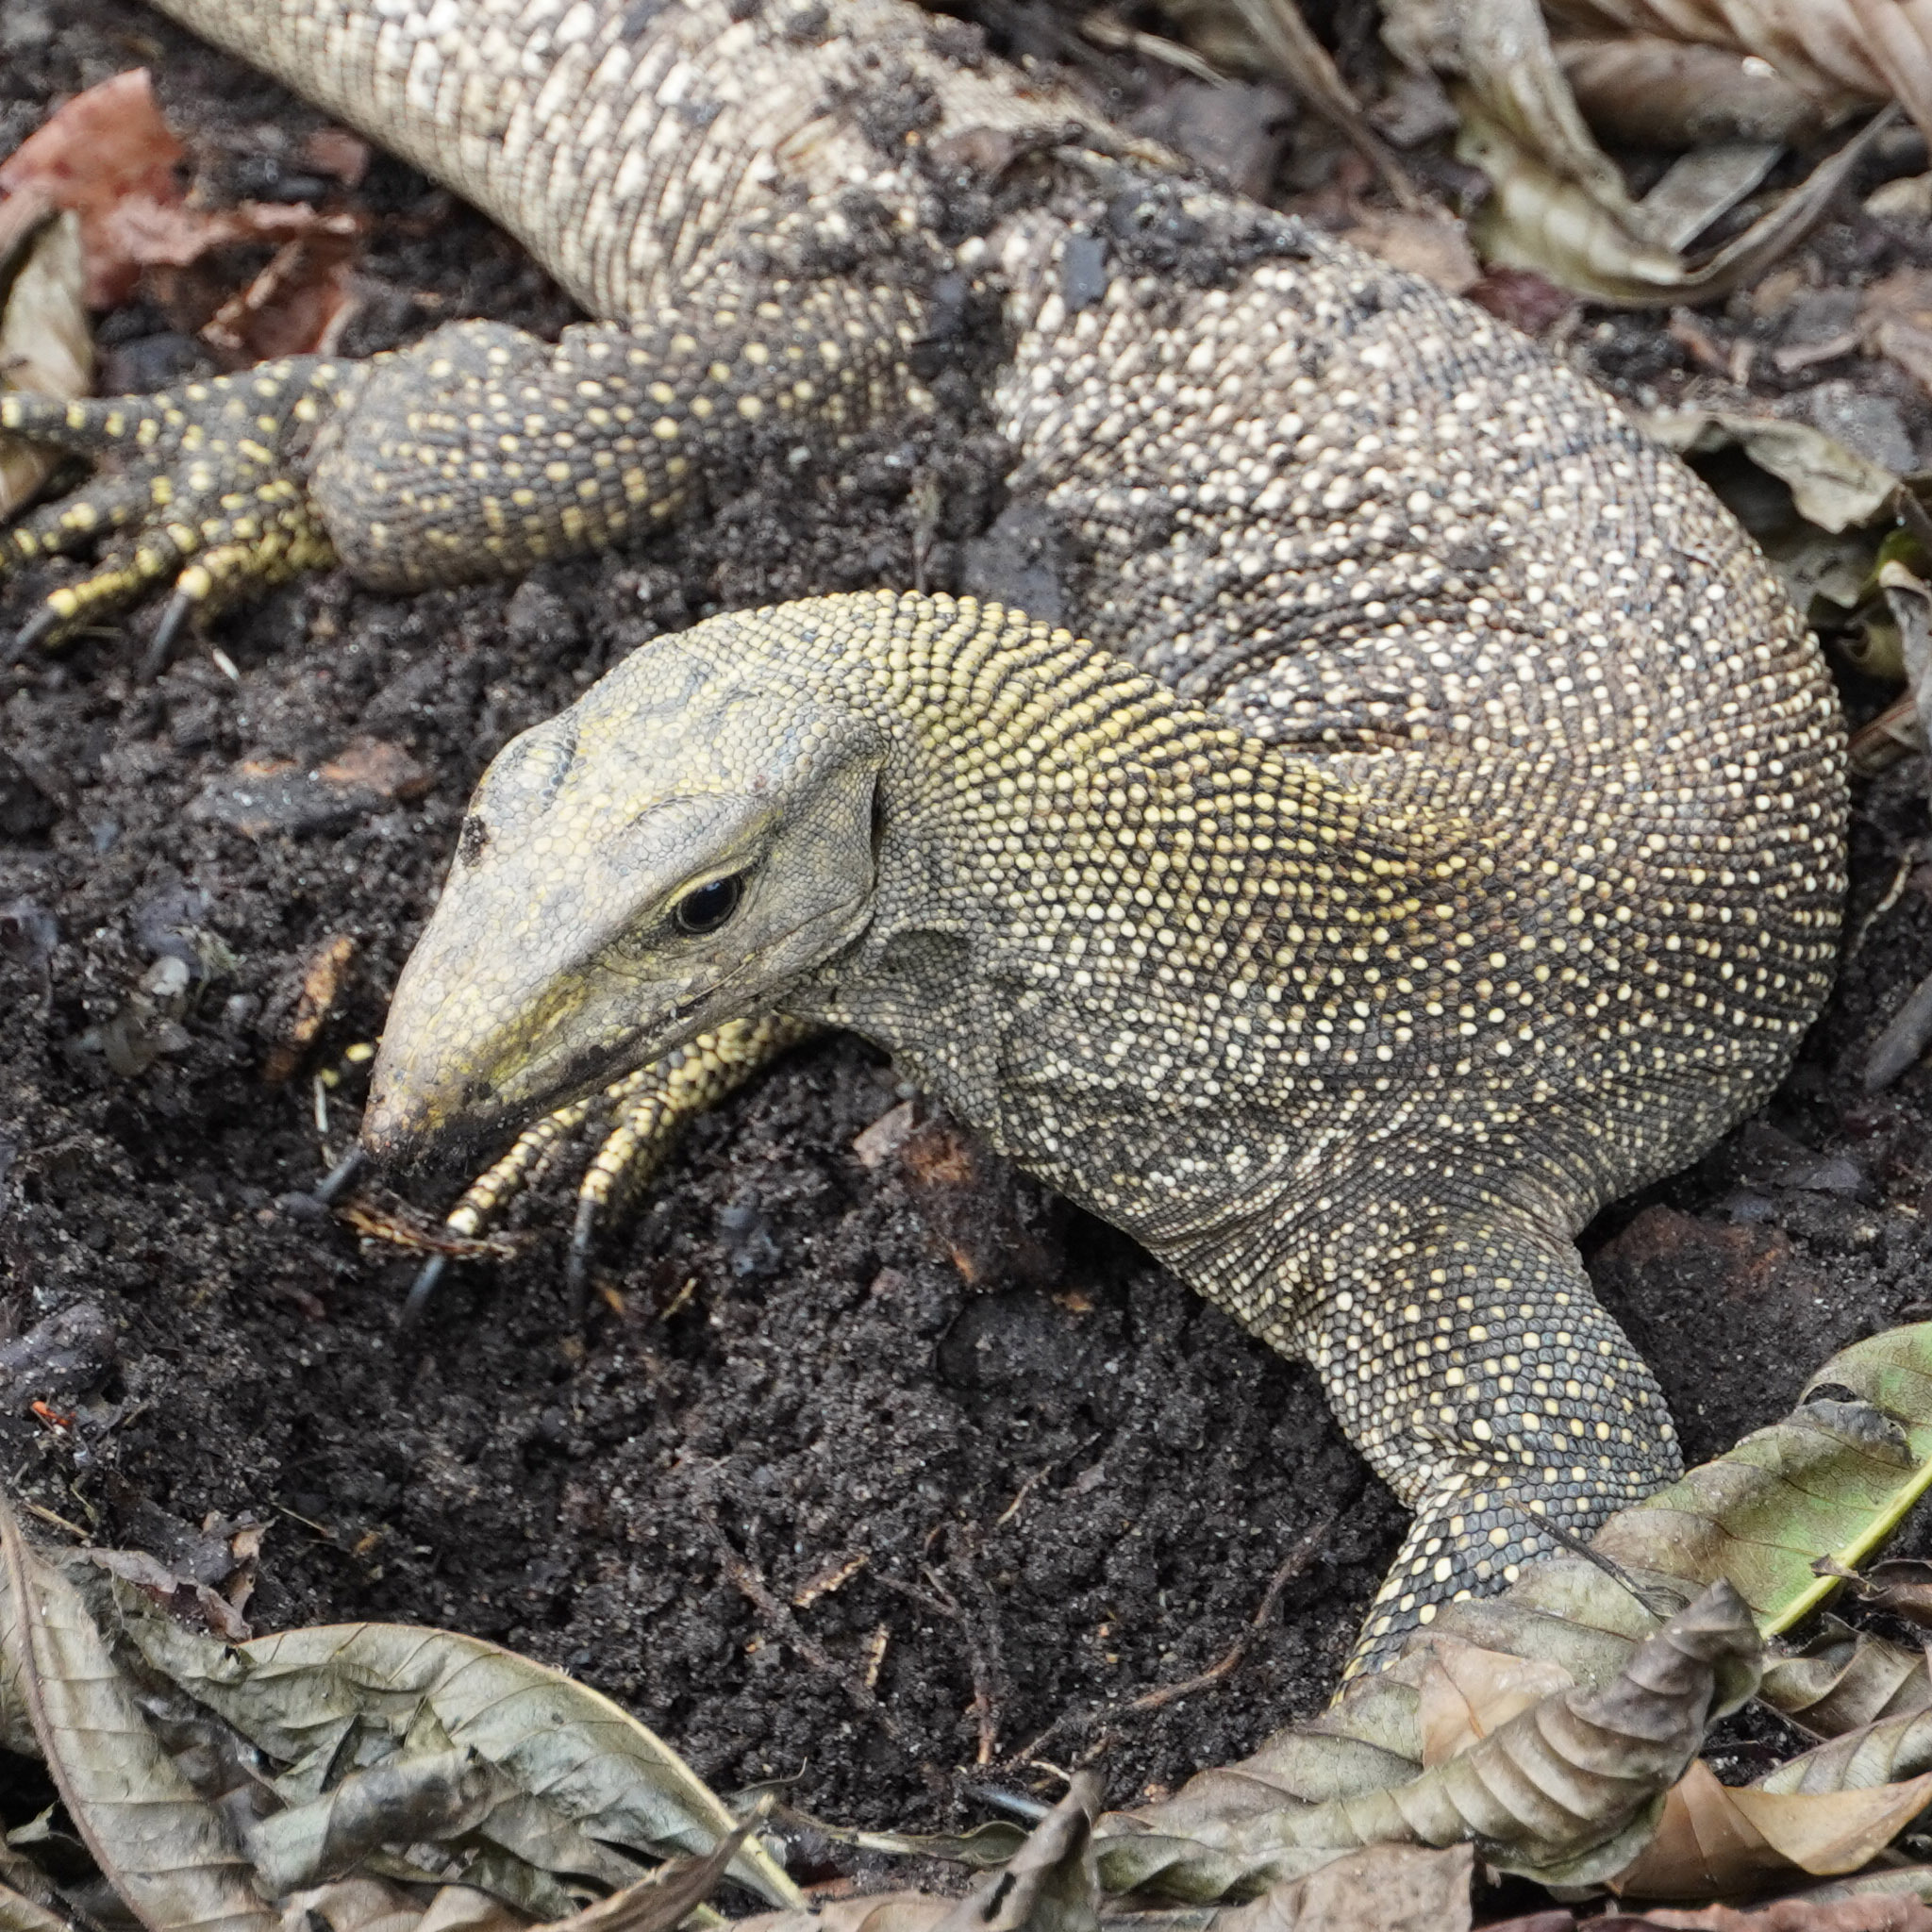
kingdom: Animalia
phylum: Chordata
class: Squamata
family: Varanidae
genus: Varanus
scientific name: Varanus nebulosus
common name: Clouded monitor
